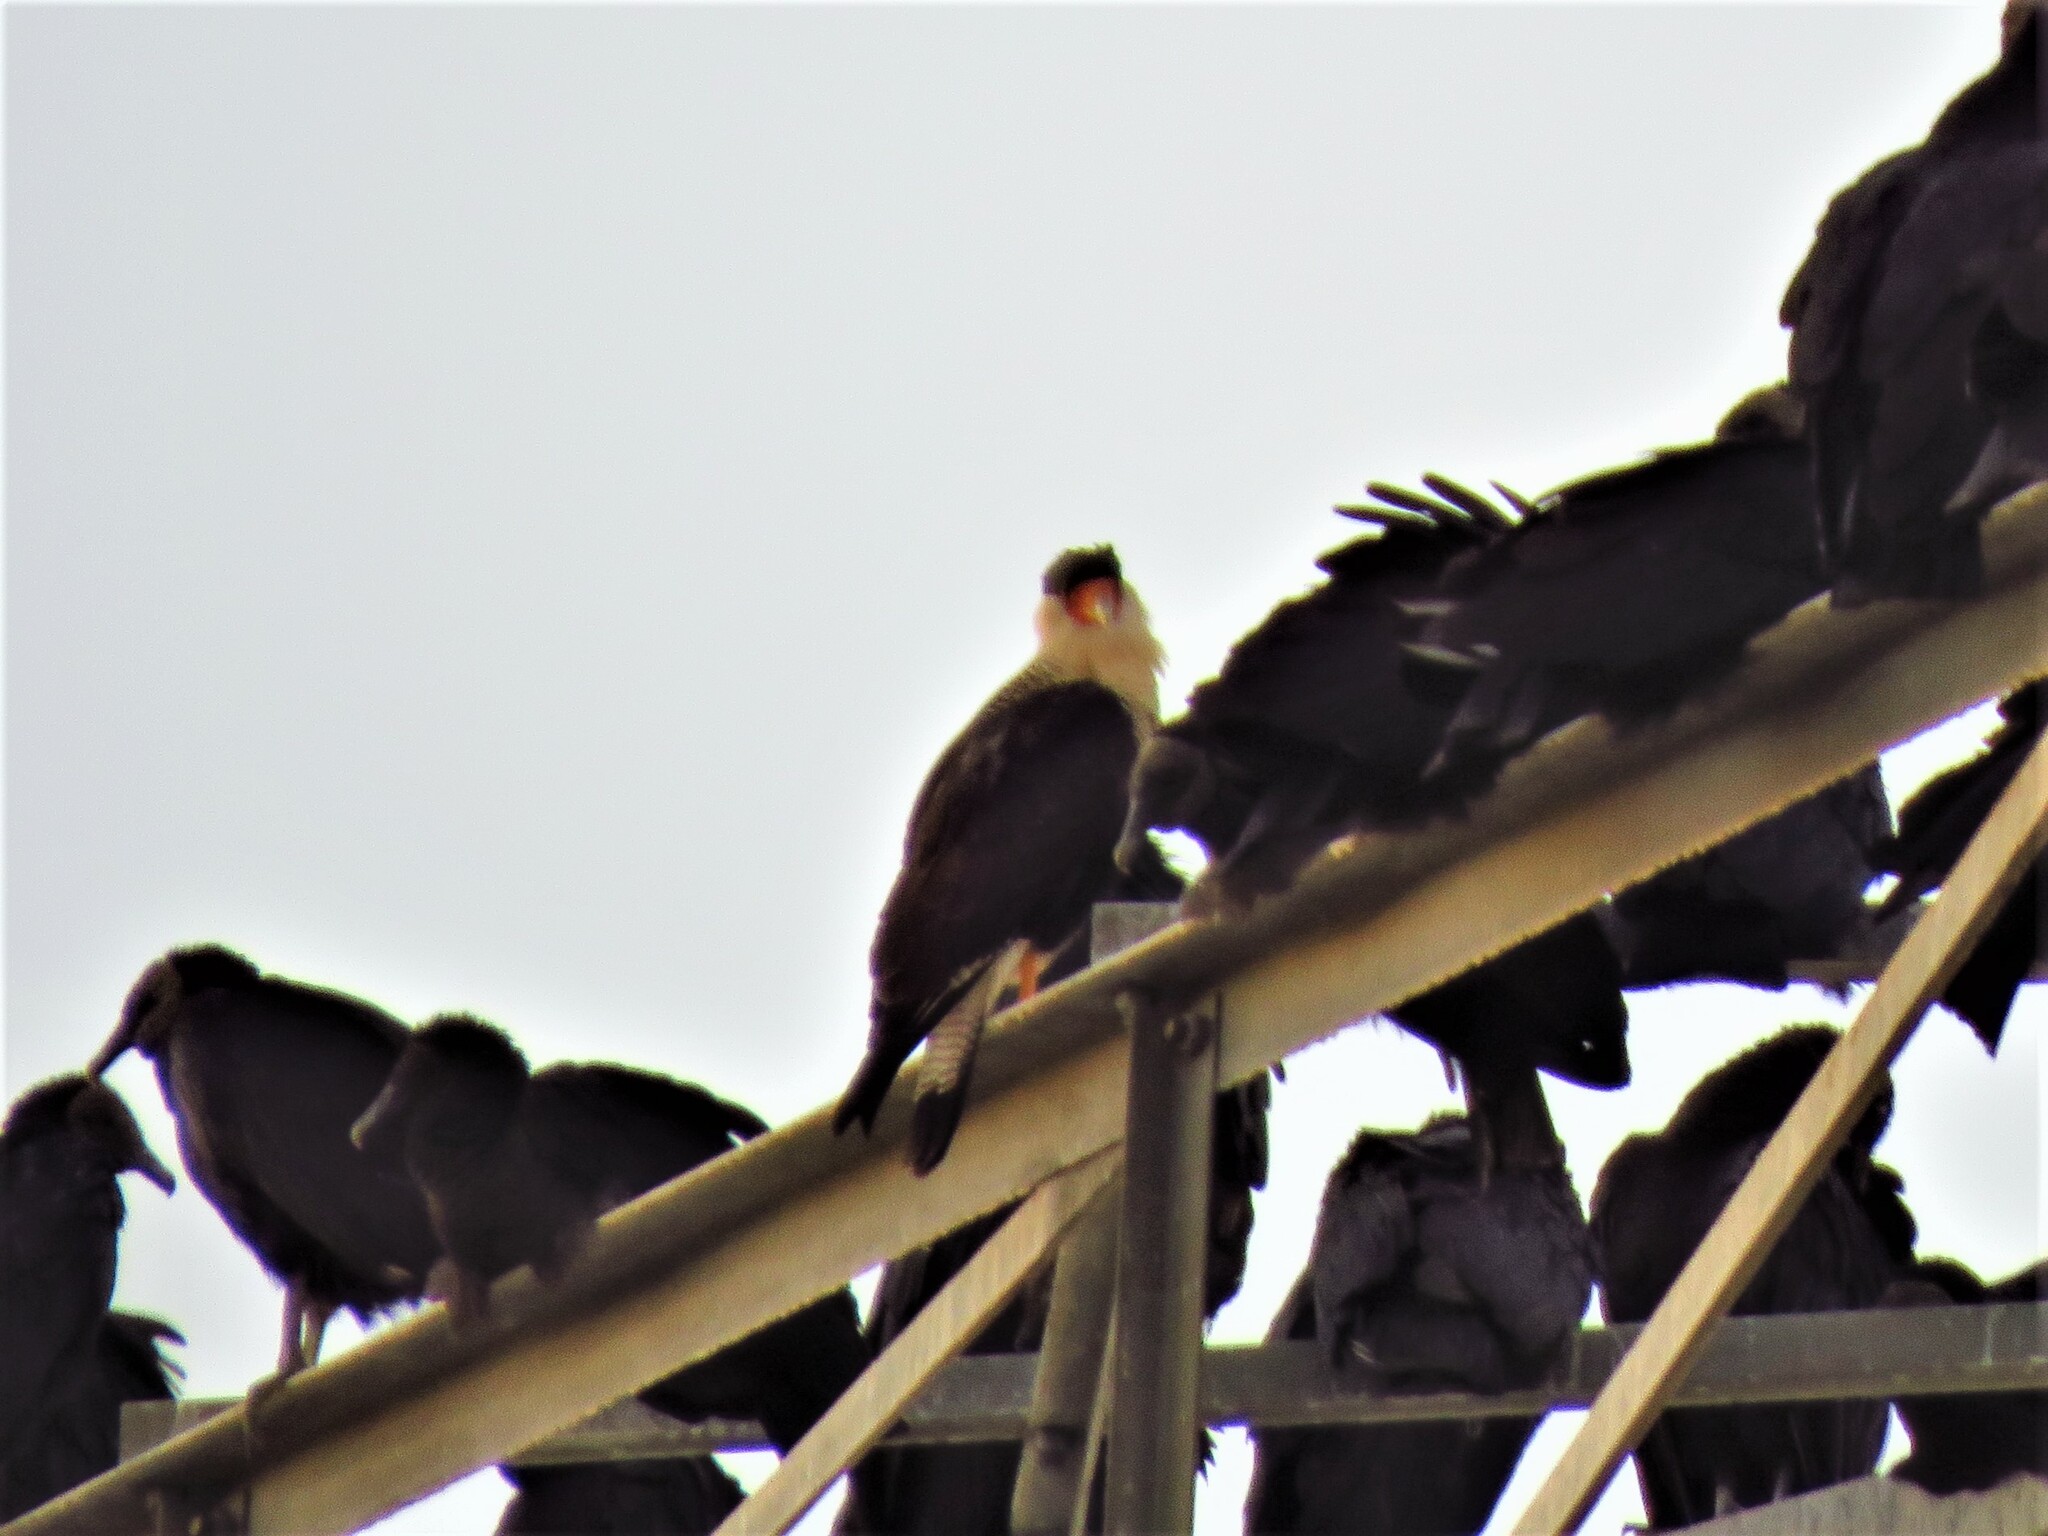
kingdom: Animalia
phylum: Chordata
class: Aves
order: Falconiformes
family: Falconidae
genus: Caracara
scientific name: Caracara plancus
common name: Southern caracara
